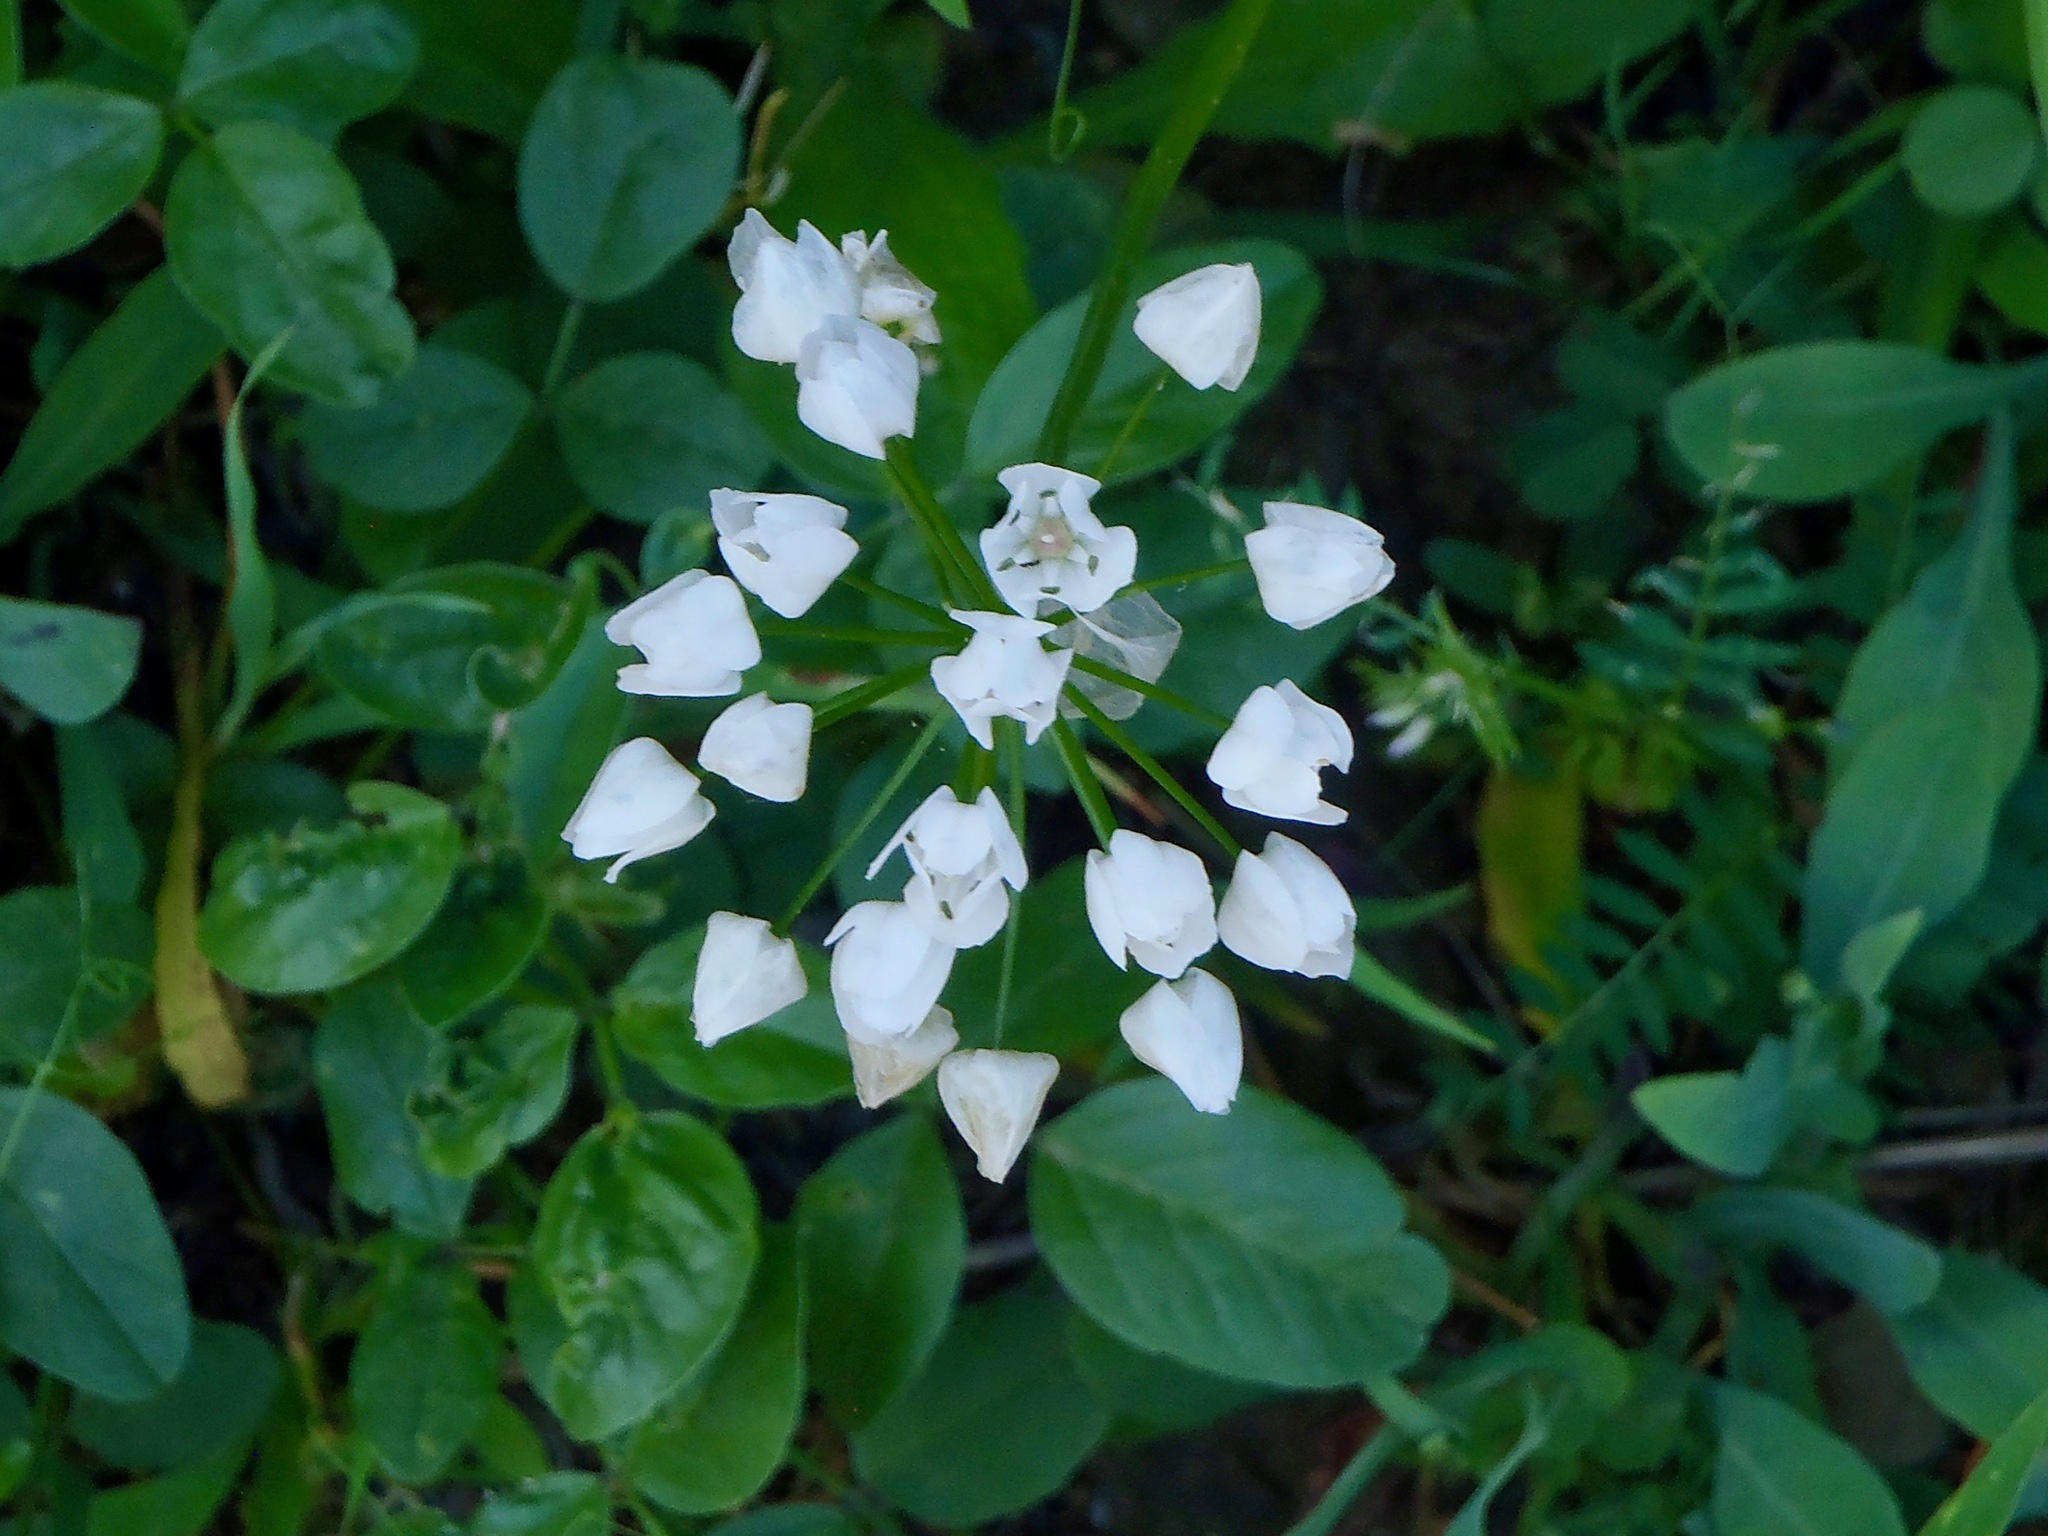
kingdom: Plantae
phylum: Tracheophyta
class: Liliopsida
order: Asparagales
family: Amaryllidaceae
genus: Allium
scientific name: Allium neapolitanum
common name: Neapolitan garlic
